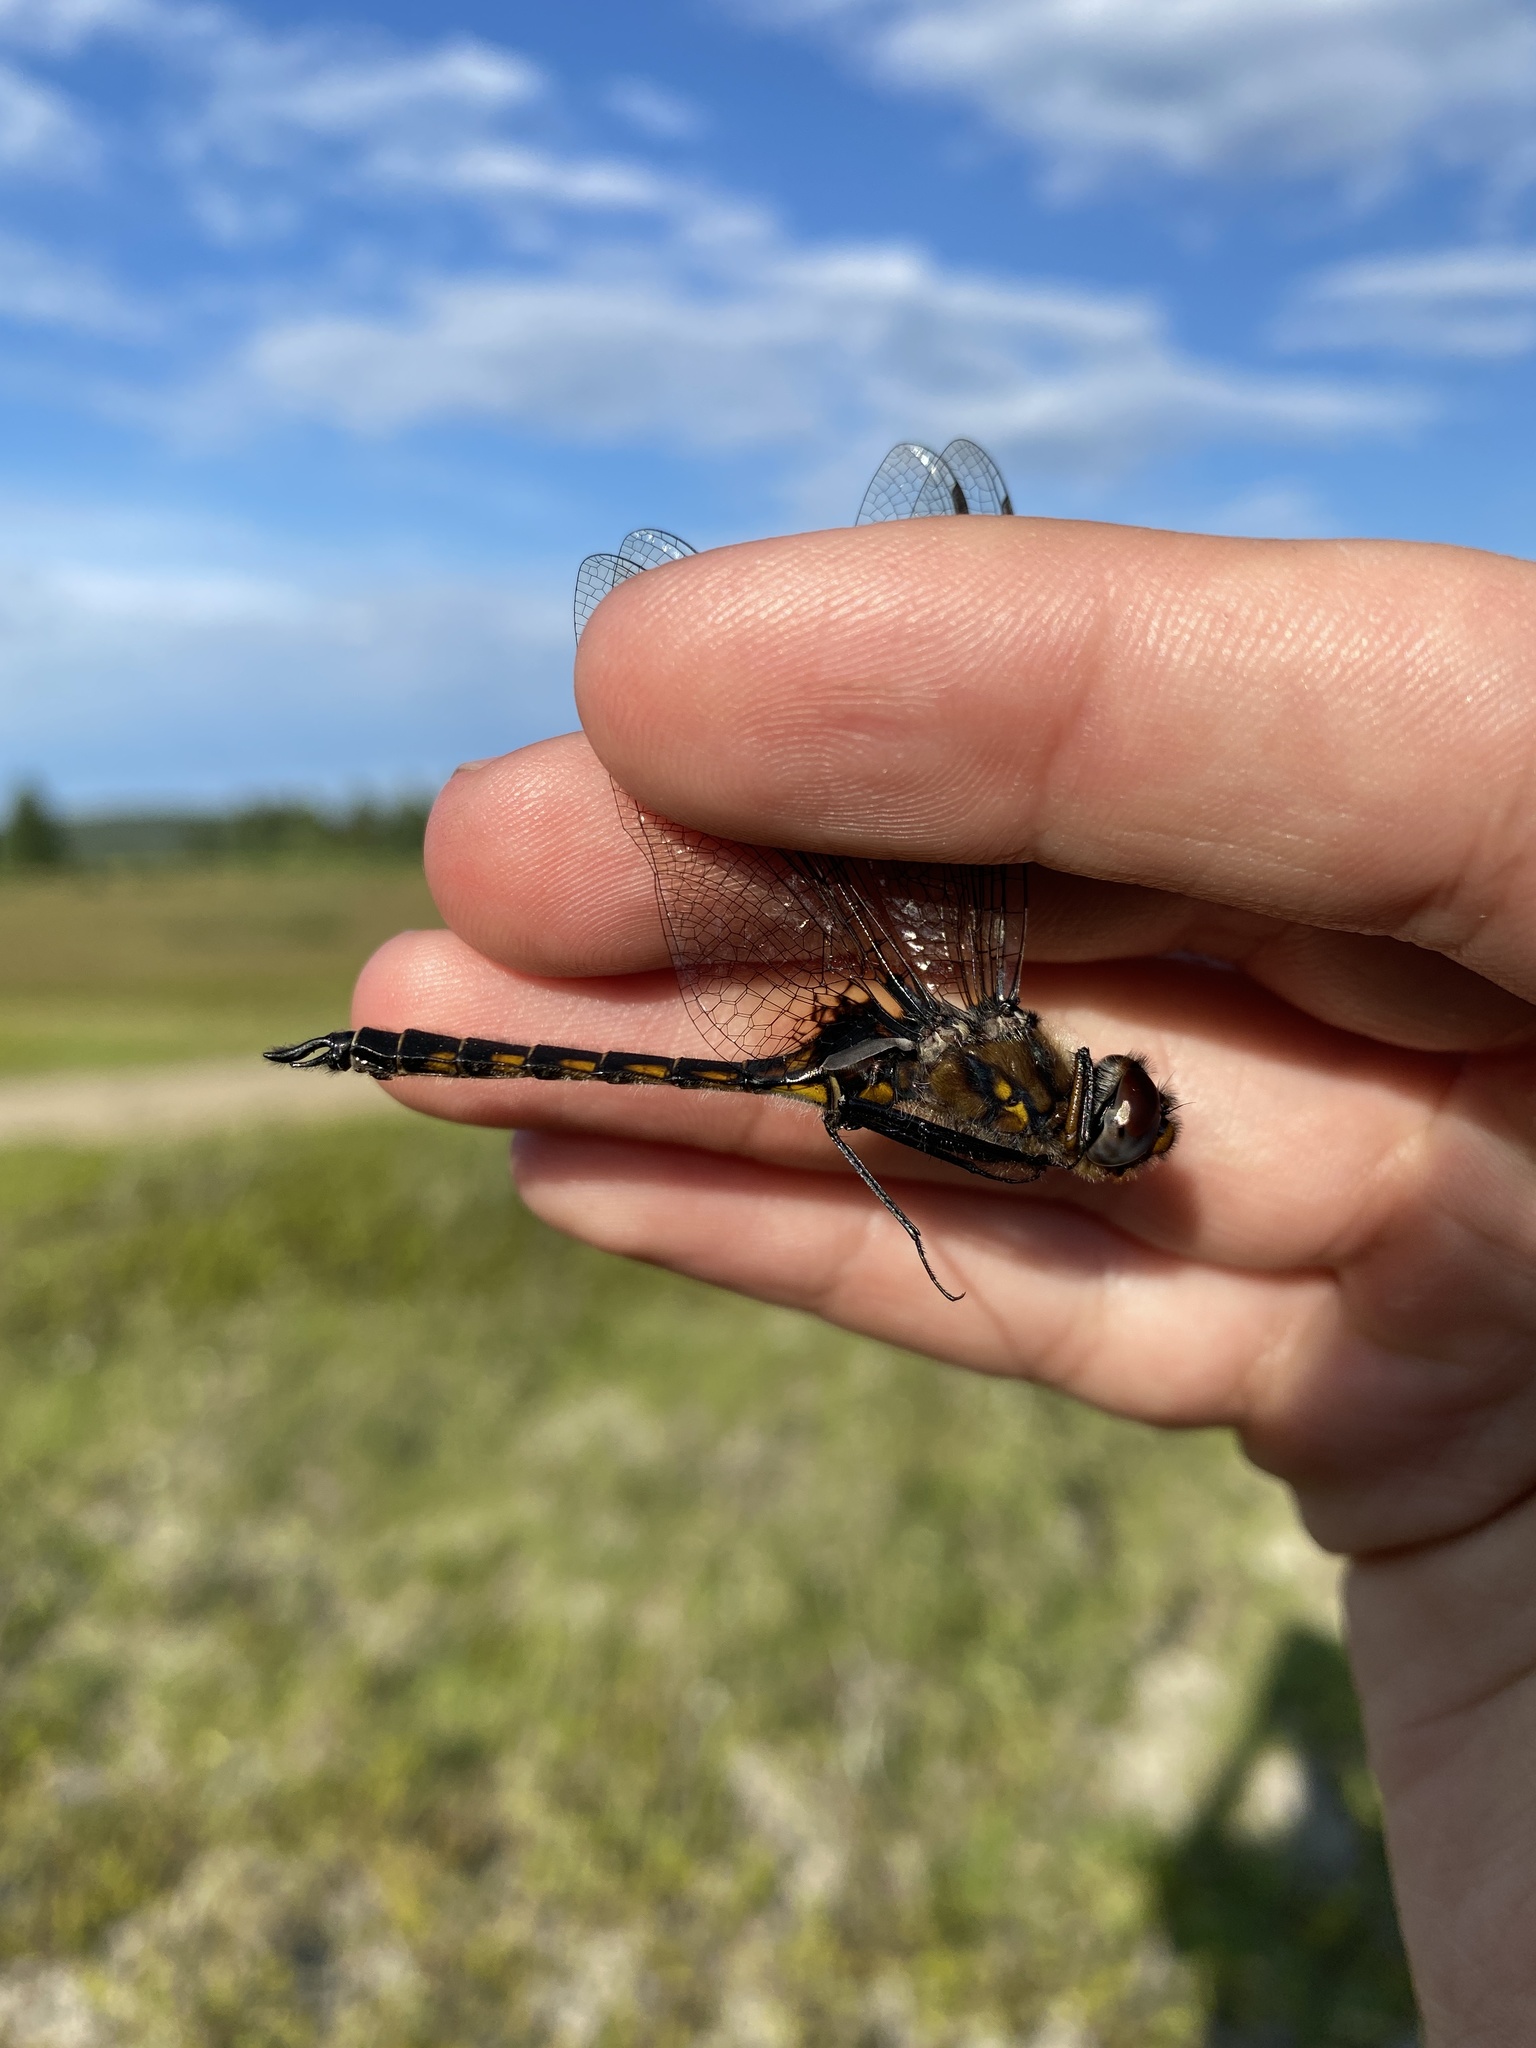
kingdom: Animalia
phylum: Arthropoda
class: Insecta
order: Odonata
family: Corduliidae
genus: Epitheca
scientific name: Epitheca spinigera
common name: Spiny baskettail
